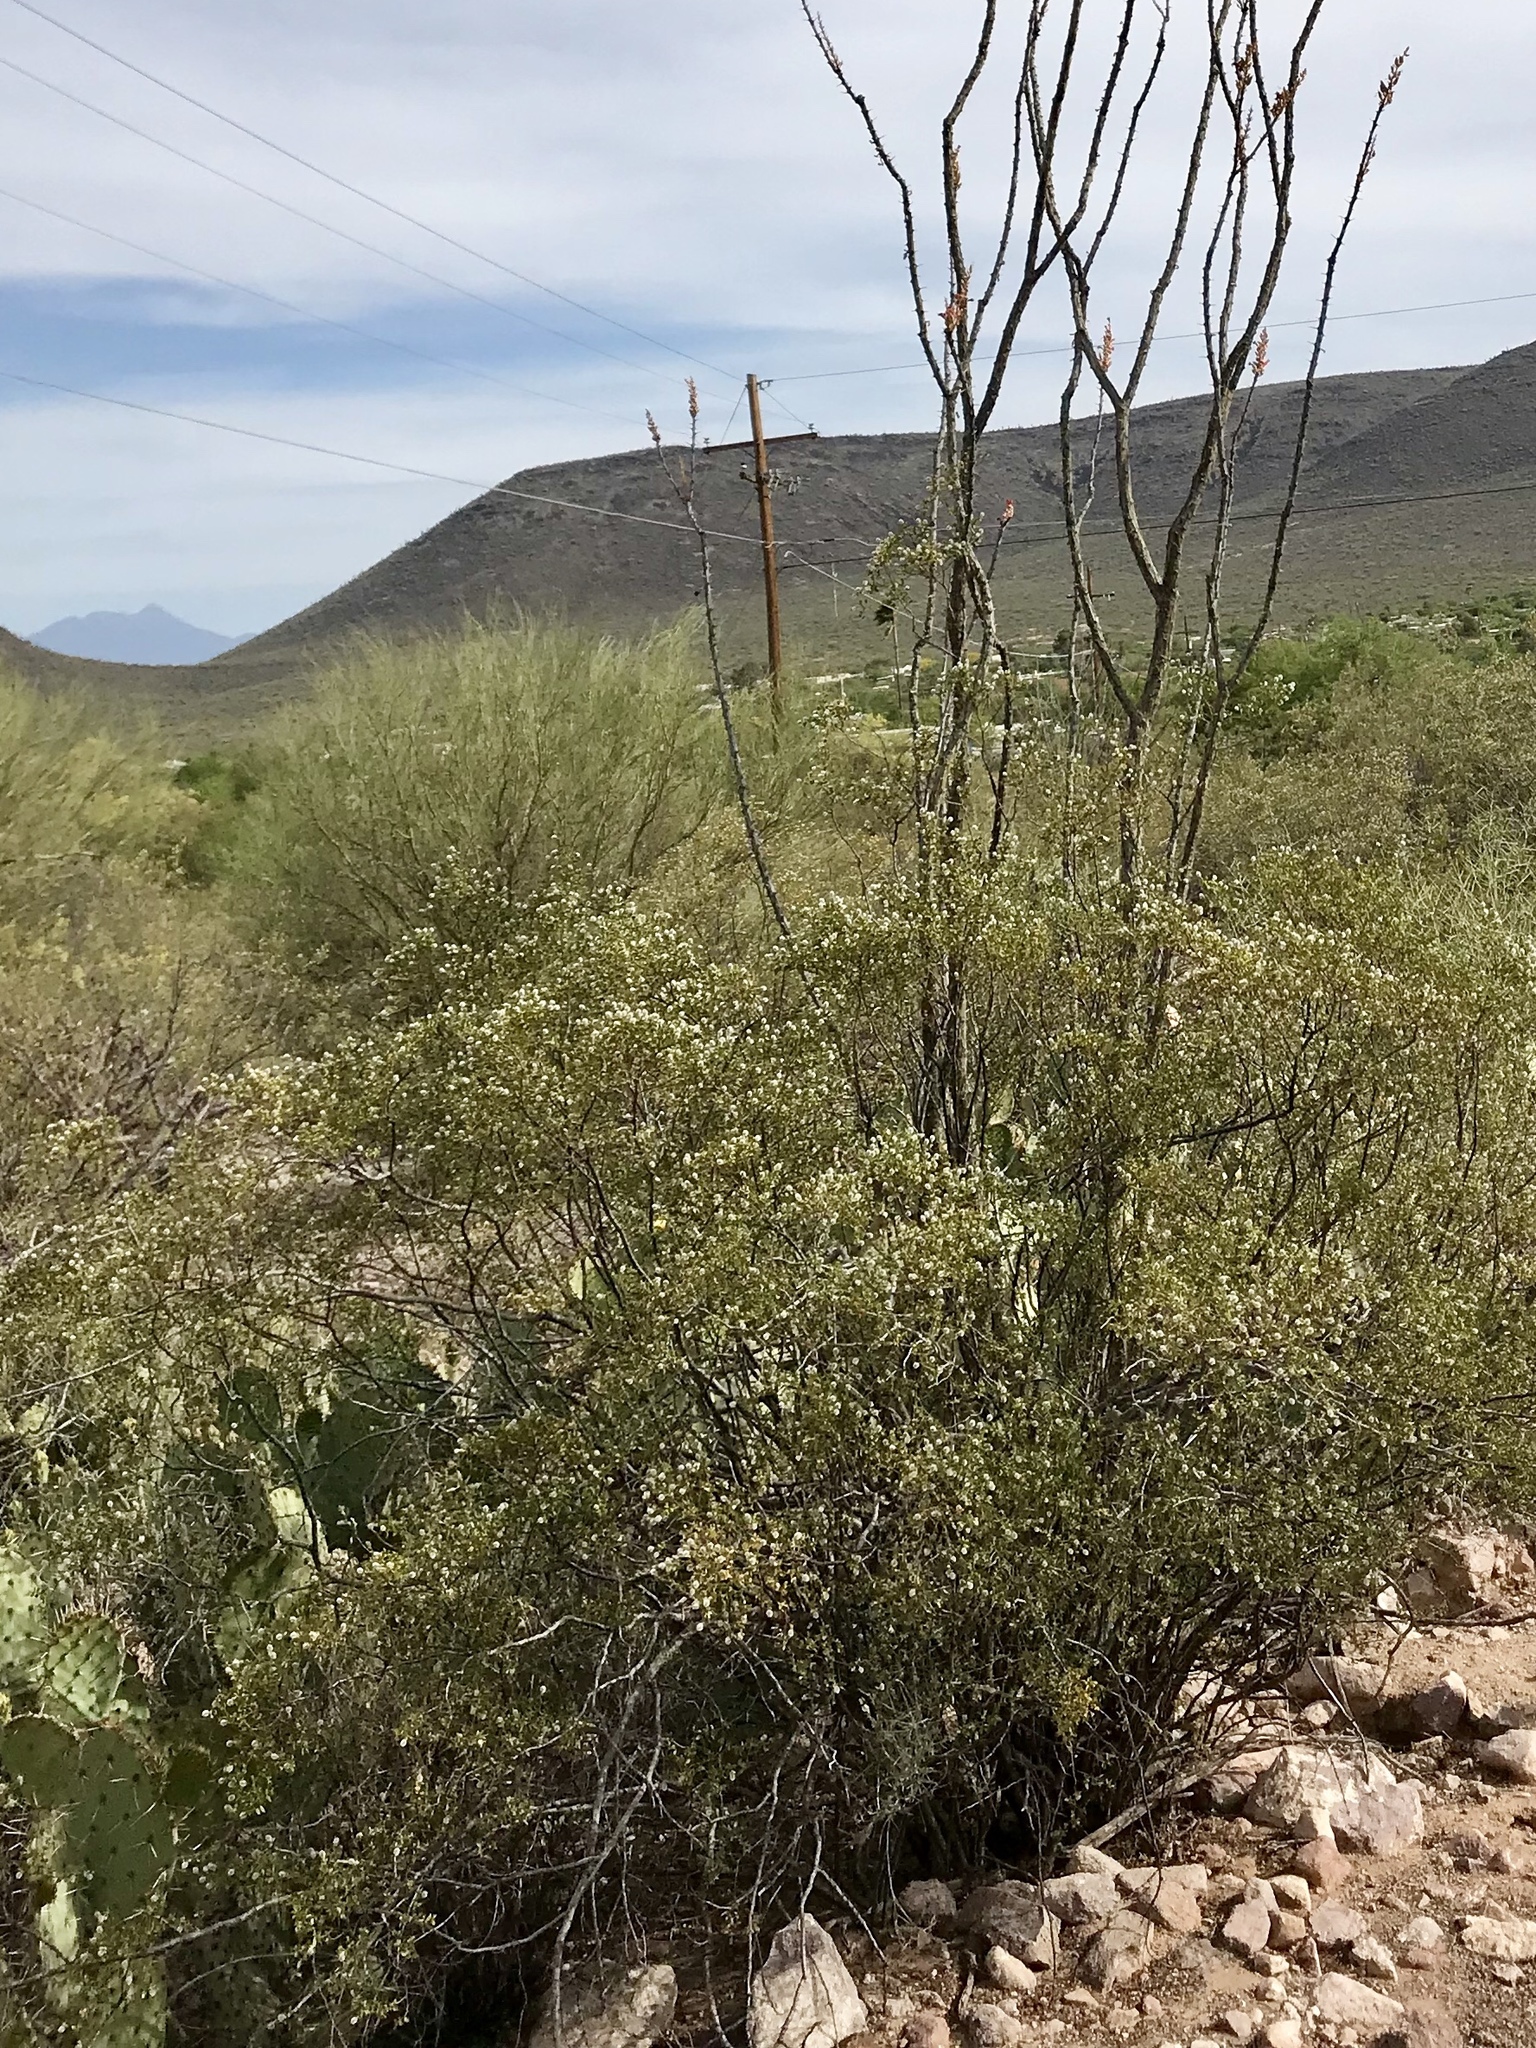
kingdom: Plantae
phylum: Tracheophyta
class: Magnoliopsida
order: Zygophyllales
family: Zygophyllaceae
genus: Larrea
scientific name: Larrea tridentata
